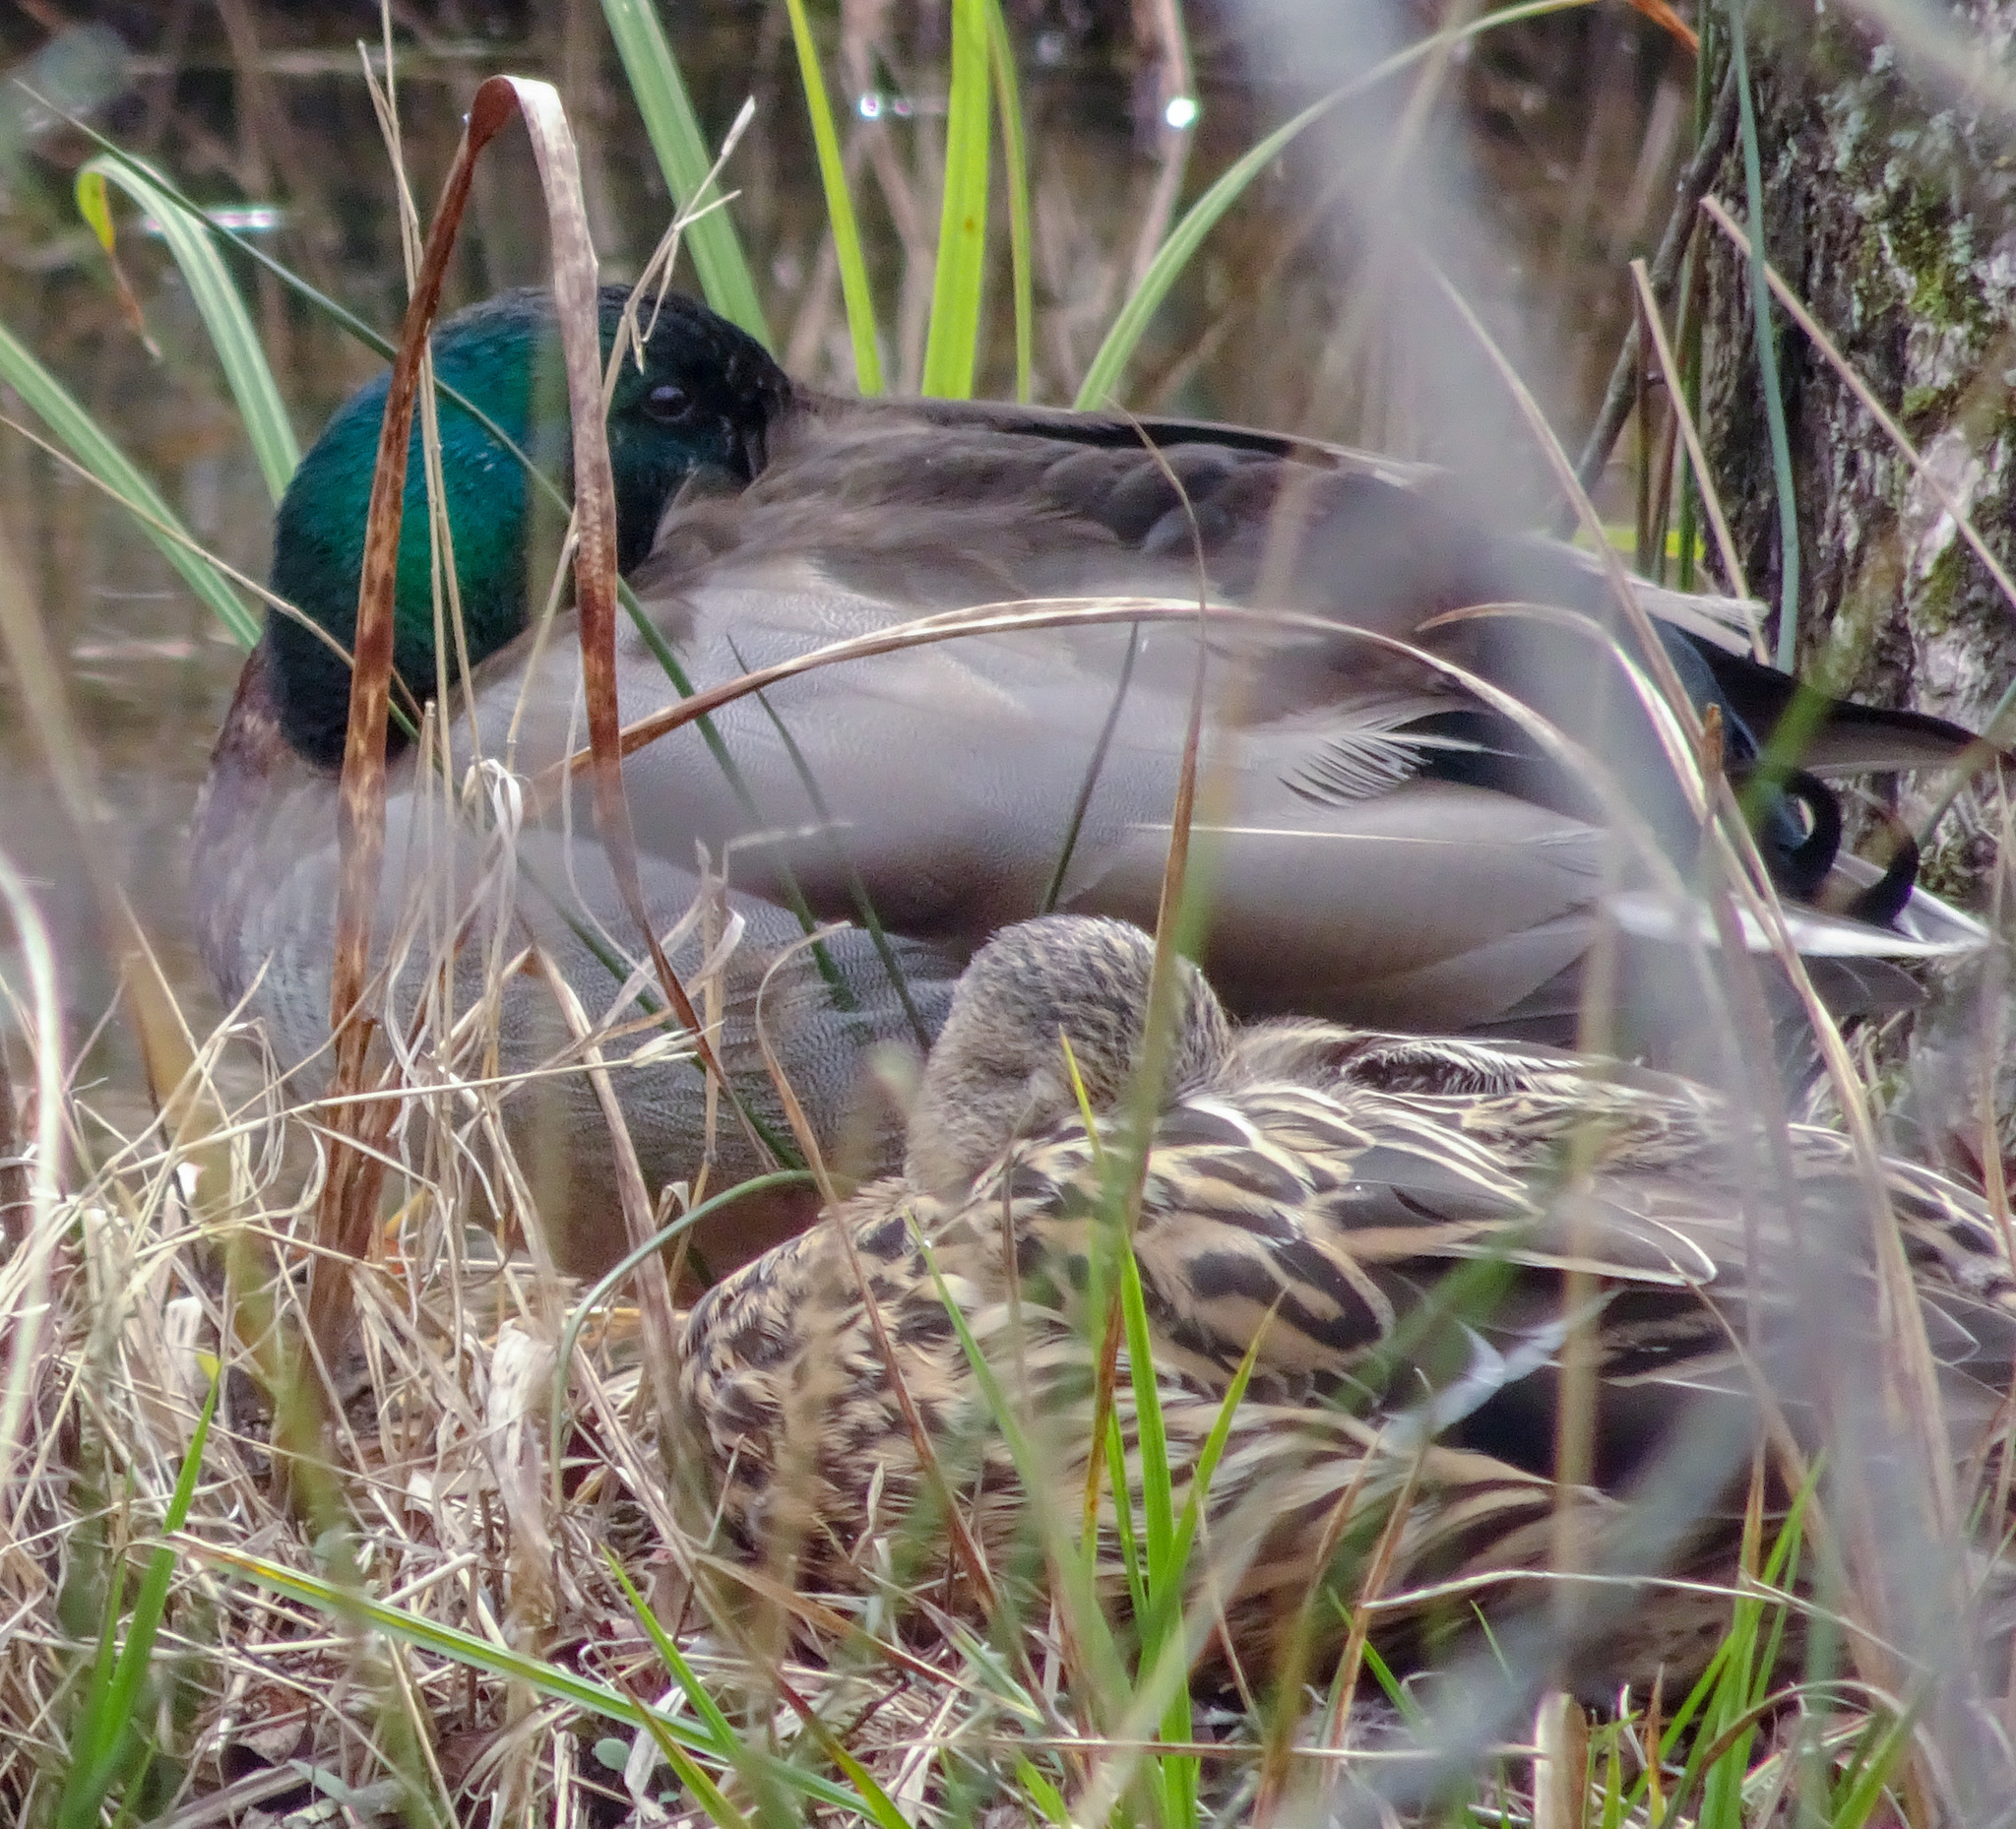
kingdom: Animalia
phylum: Chordata
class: Aves
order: Anseriformes
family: Anatidae
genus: Anas
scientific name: Anas platyrhynchos
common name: Mallard
